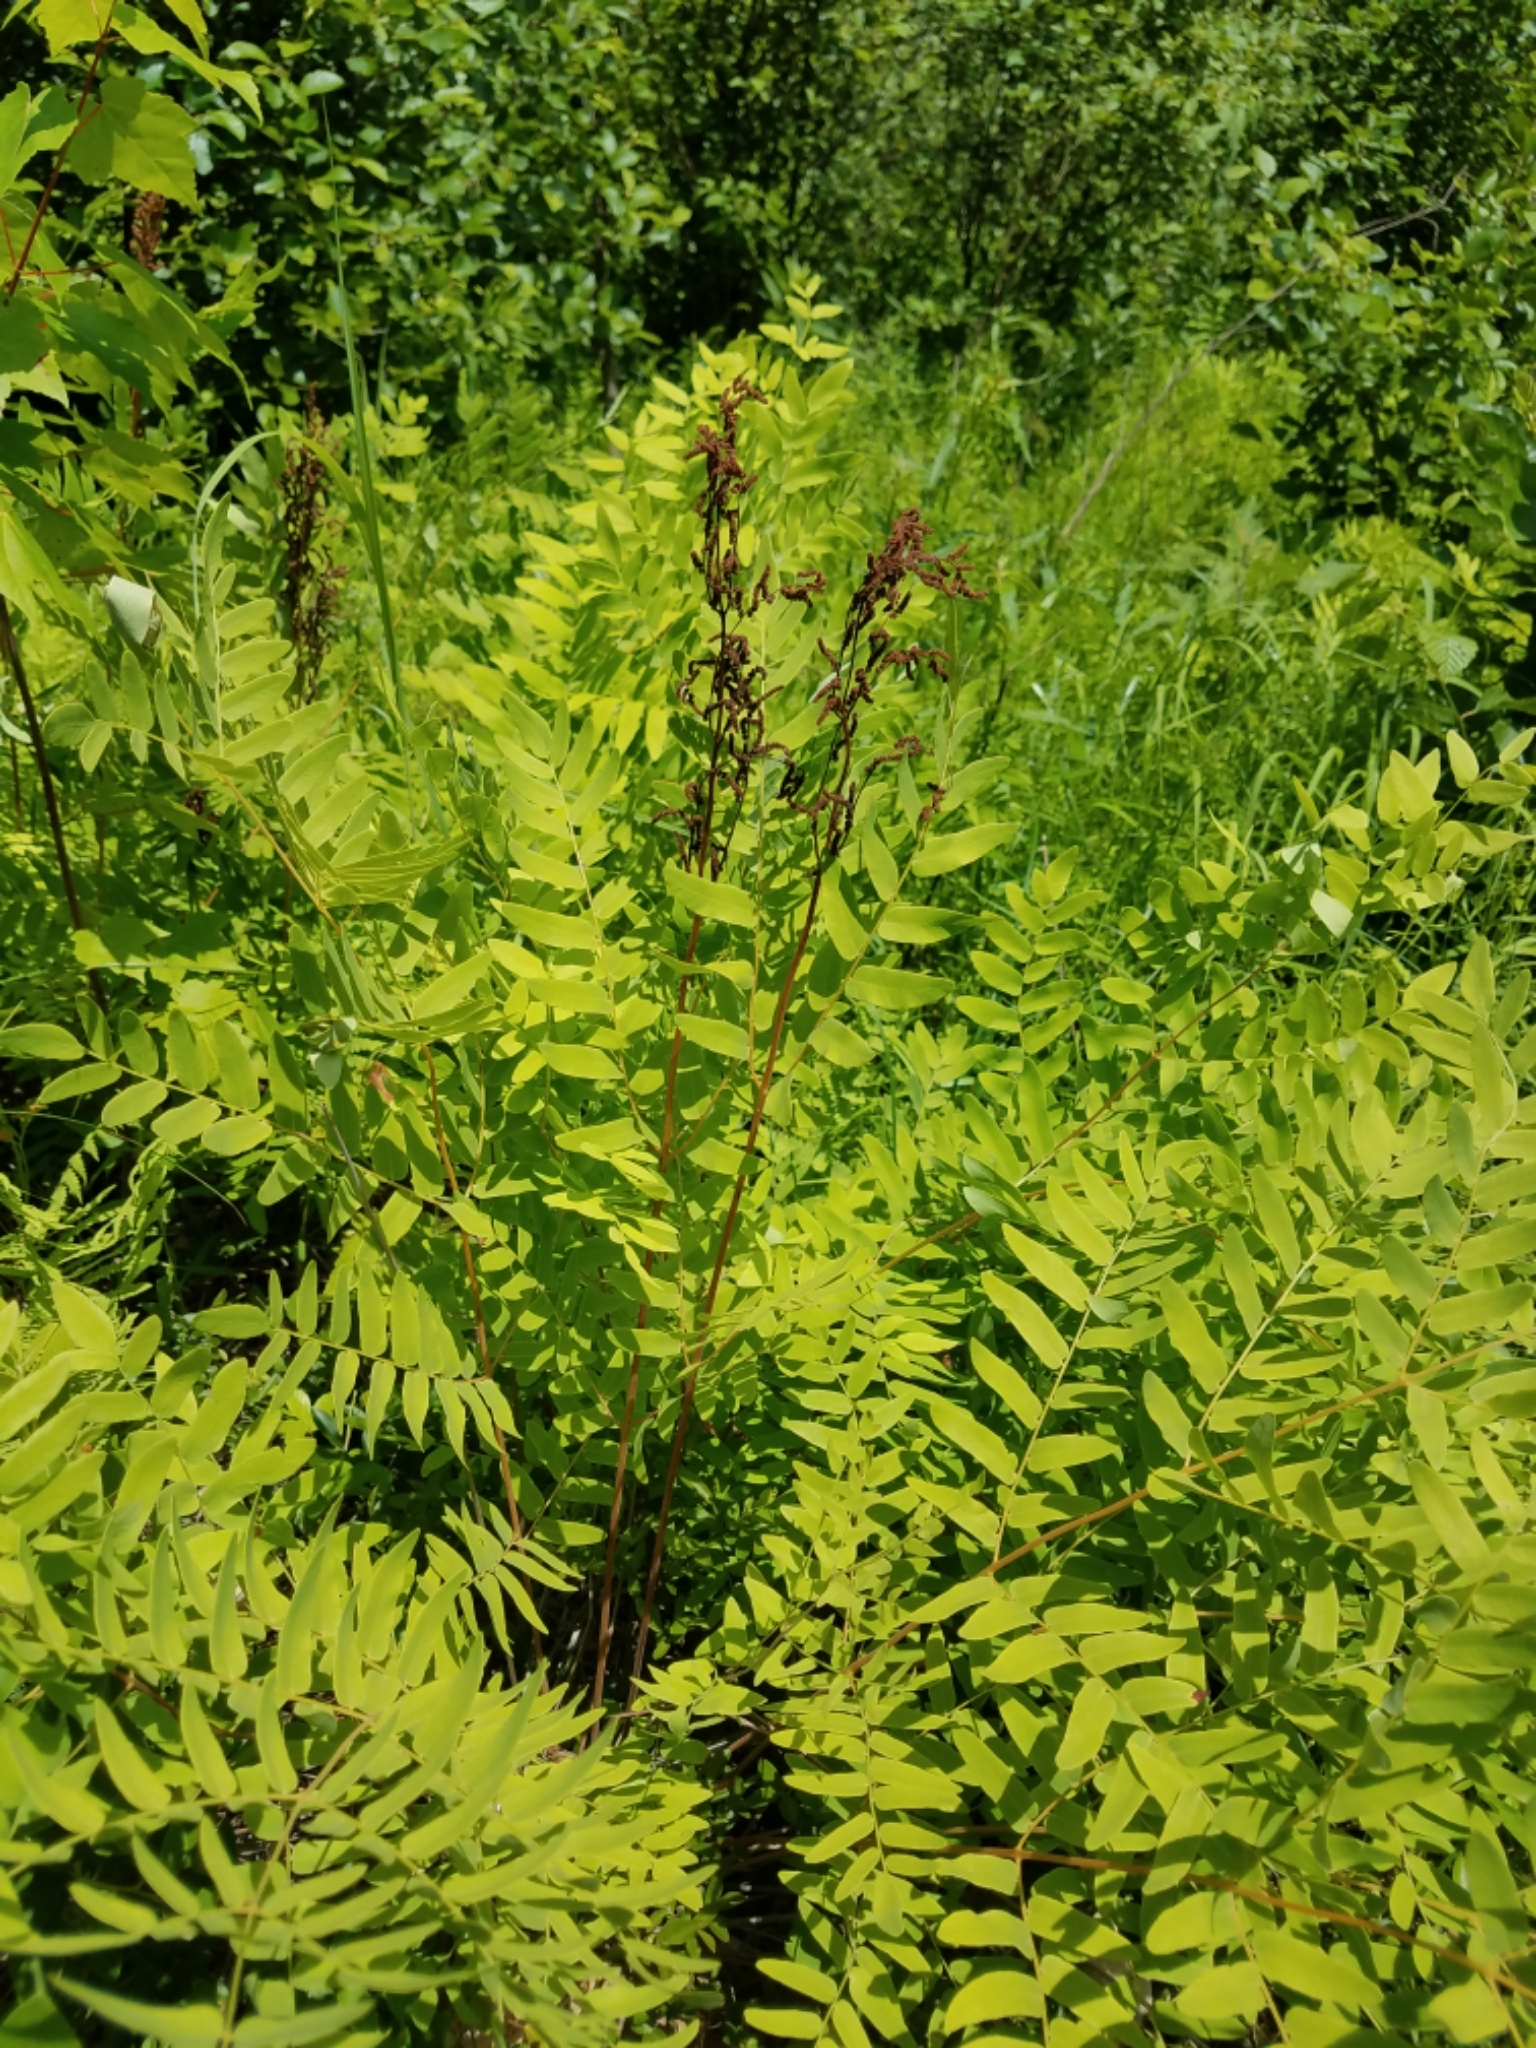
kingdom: Plantae
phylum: Tracheophyta
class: Polypodiopsida
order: Osmundales
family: Osmundaceae
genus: Osmunda
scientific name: Osmunda spectabilis
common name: American royal fern
